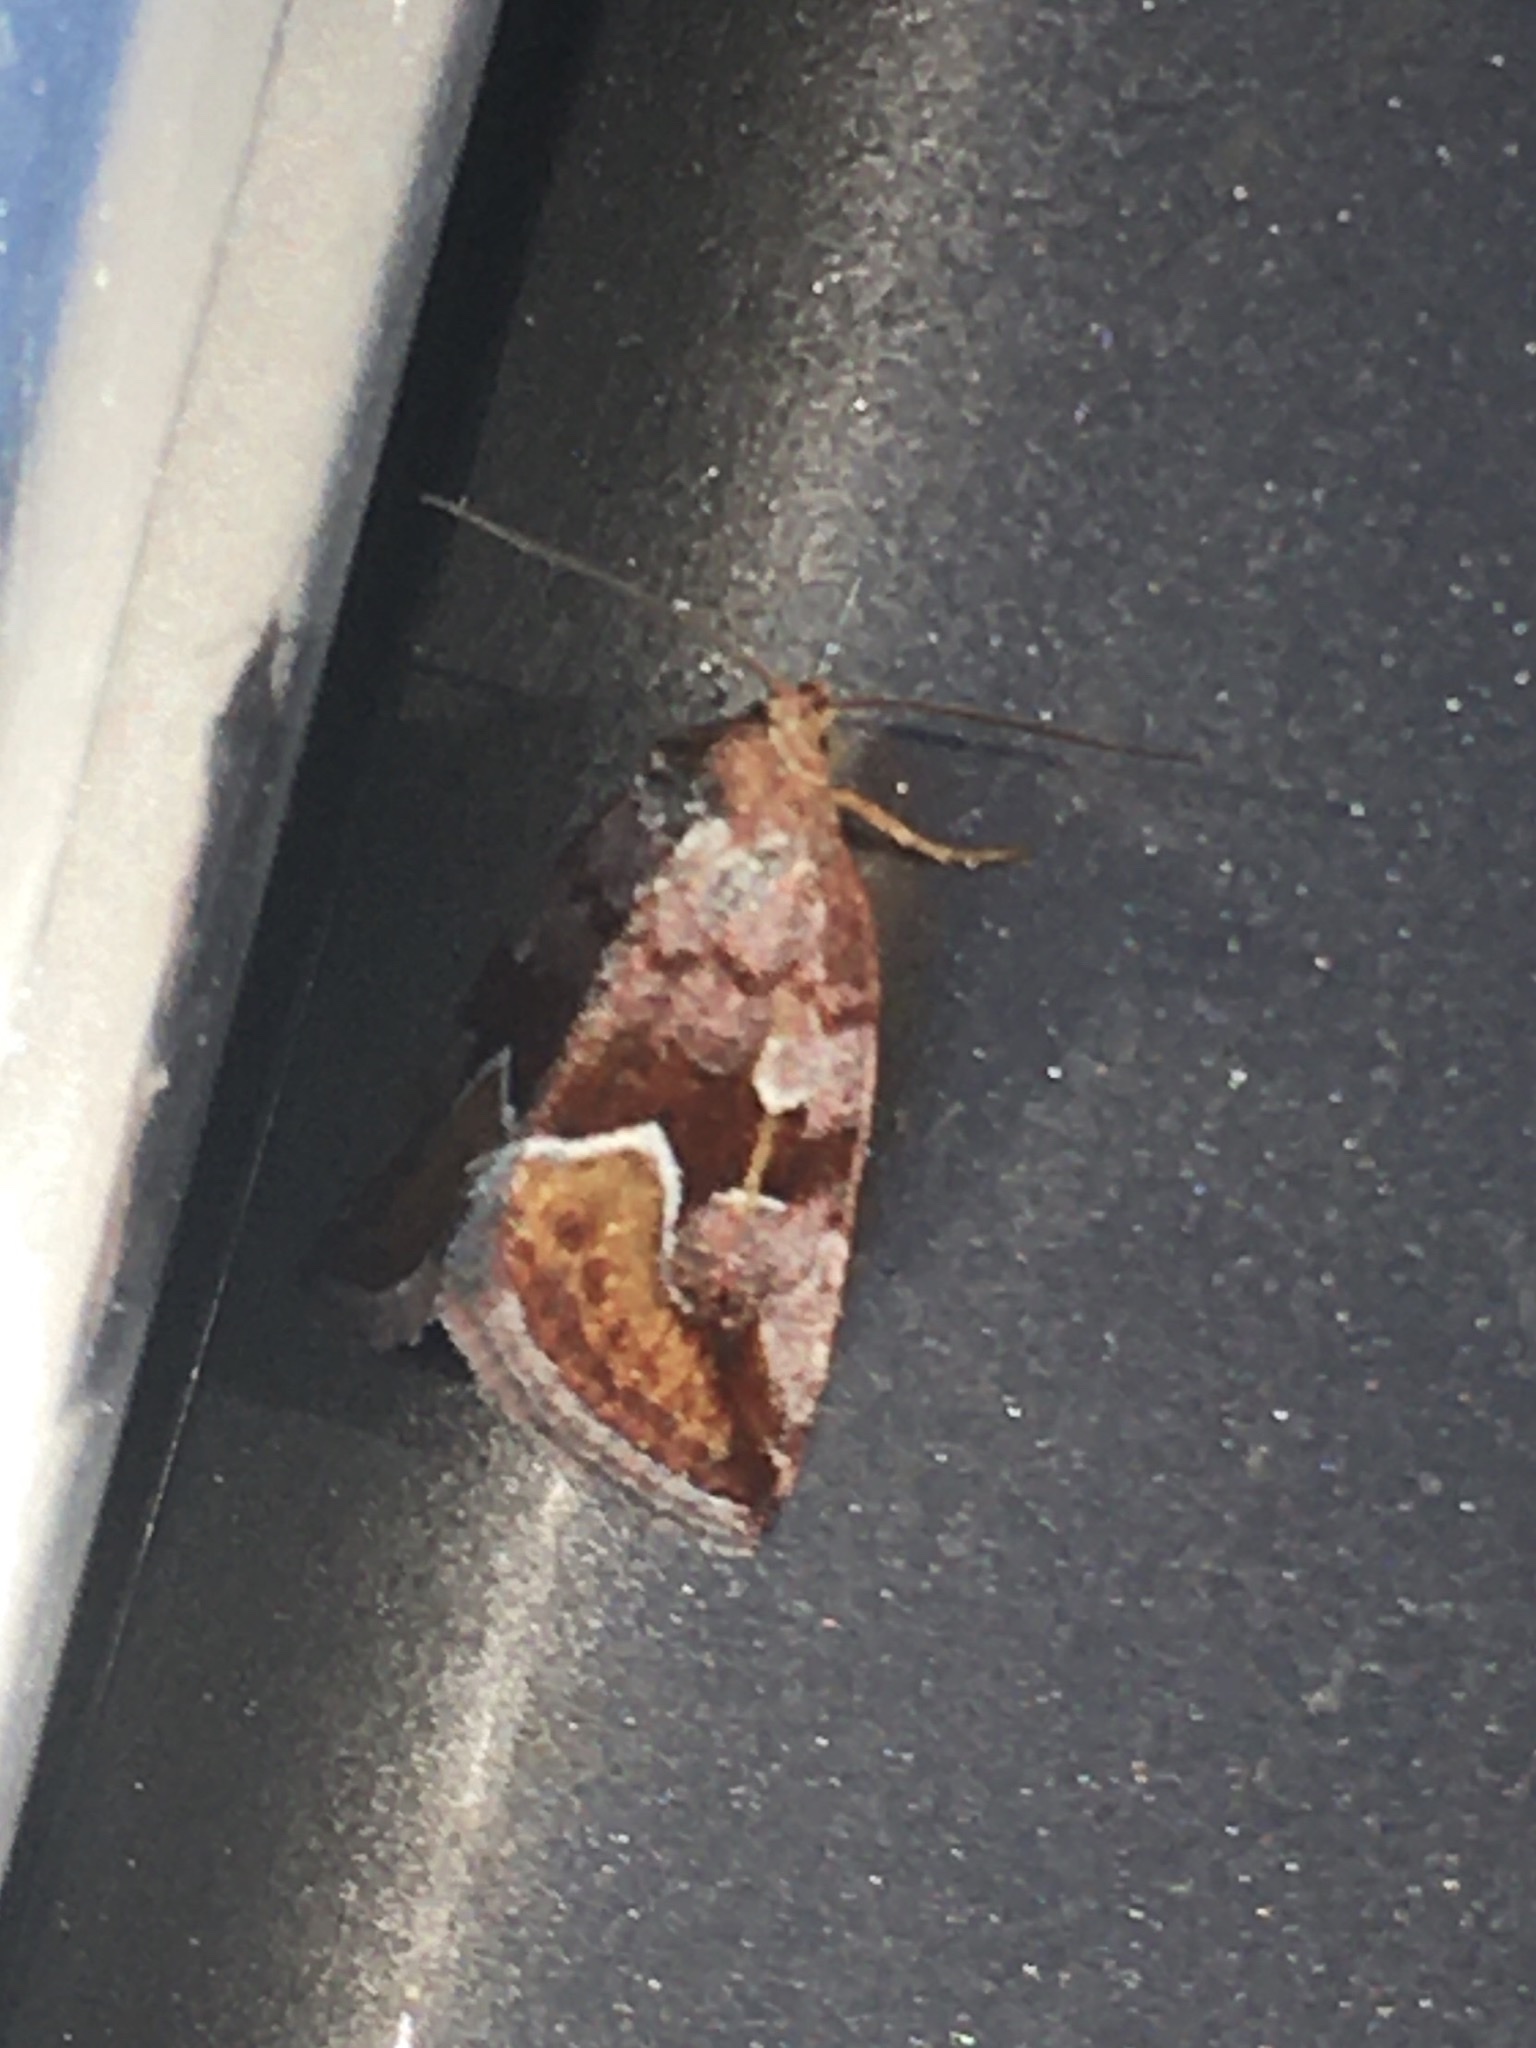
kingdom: Animalia
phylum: Arthropoda
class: Insecta
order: Lepidoptera
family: Noctuidae
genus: Deltote
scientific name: Deltote bellicula
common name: Bog glyph
